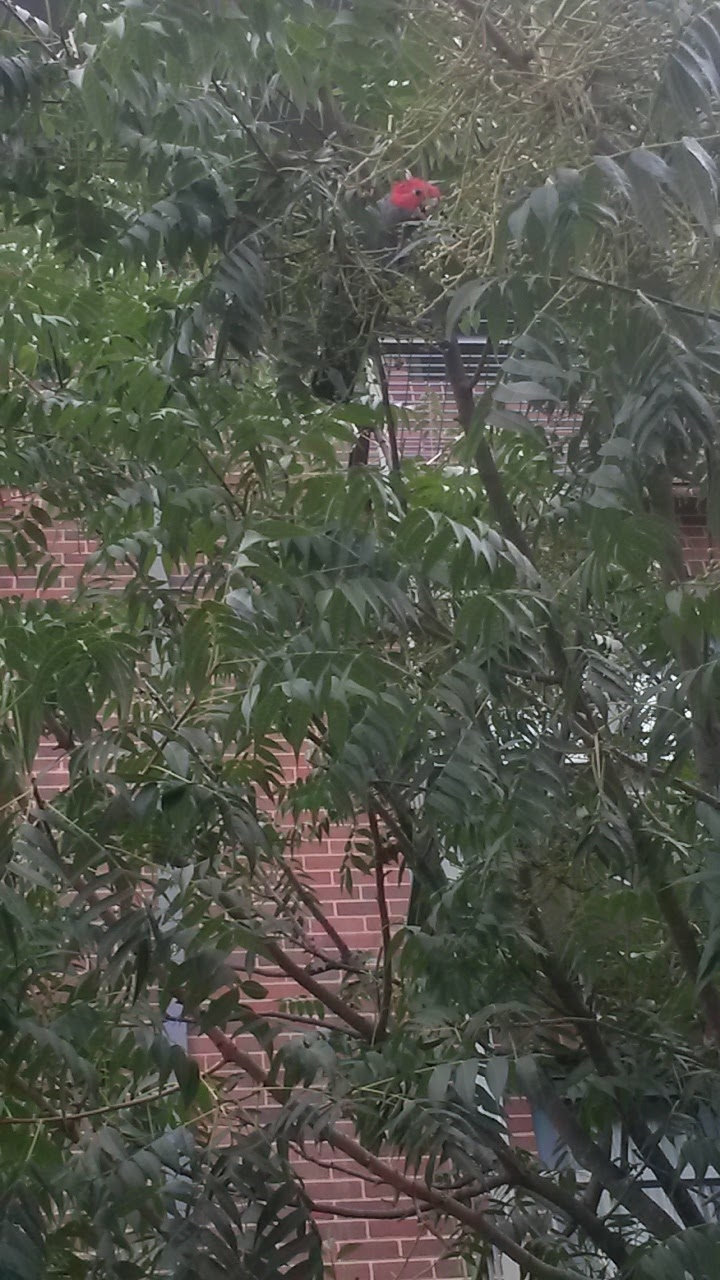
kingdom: Animalia
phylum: Chordata
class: Aves
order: Psittaciformes
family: Psittacidae
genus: Callocephalon
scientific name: Callocephalon fimbriatum
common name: Gang-gang cockatoo
